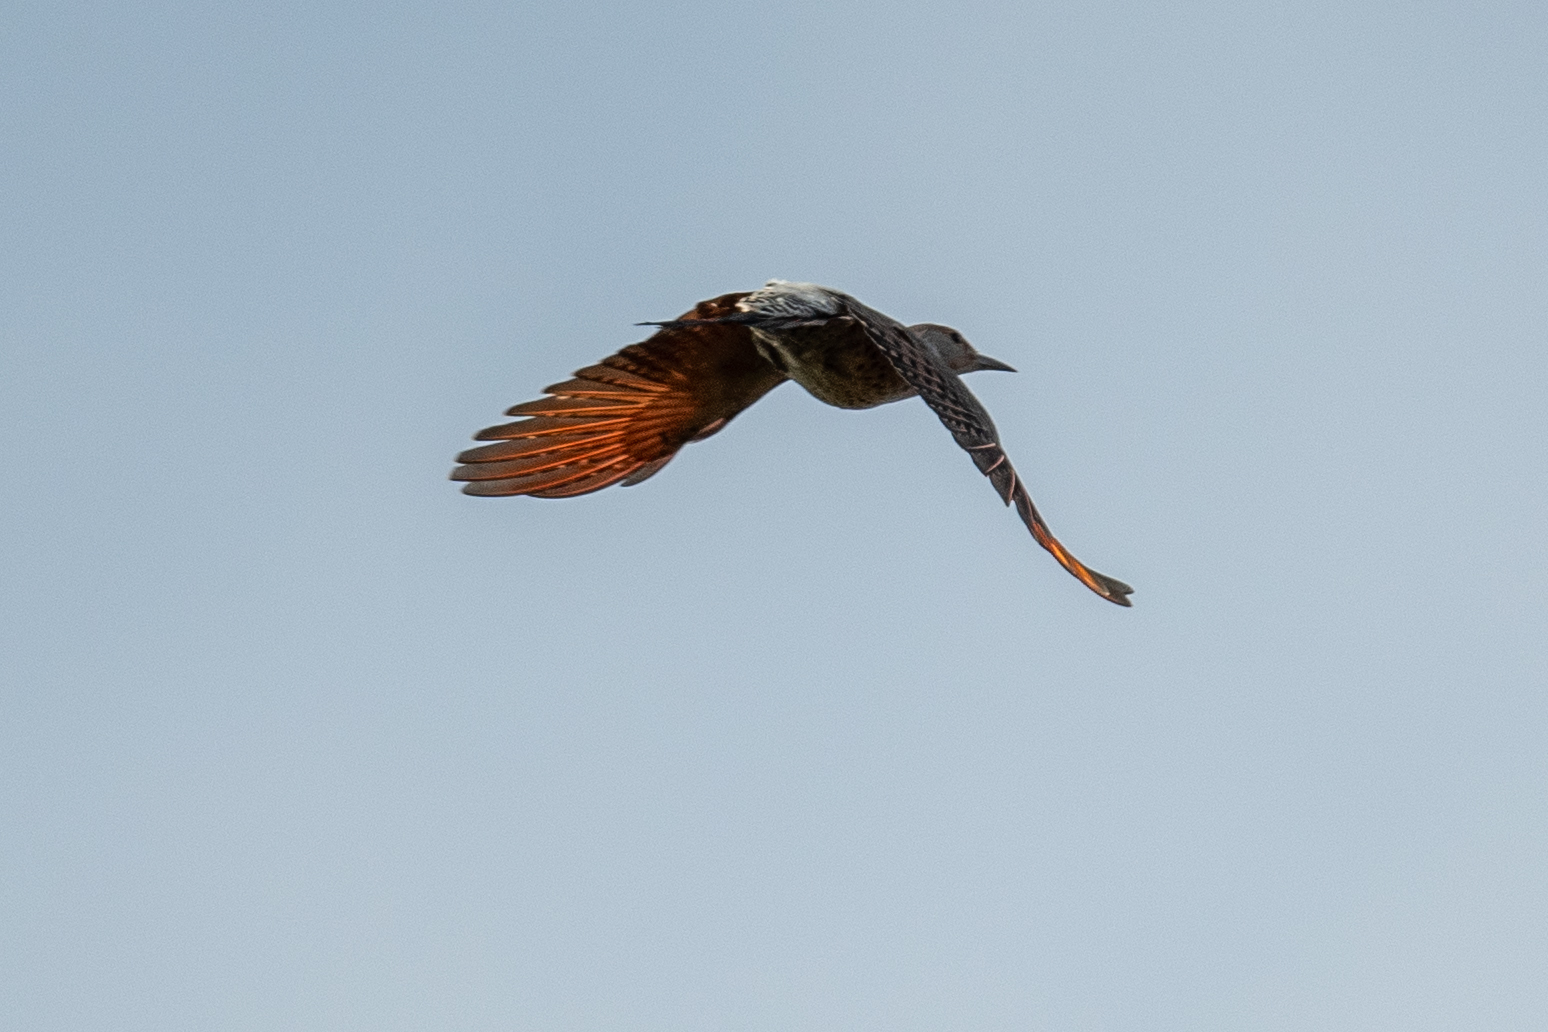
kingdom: Animalia
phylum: Chordata
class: Aves
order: Piciformes
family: Picidae
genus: Colaptes
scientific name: Colaptes auratus
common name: Northern flicker
